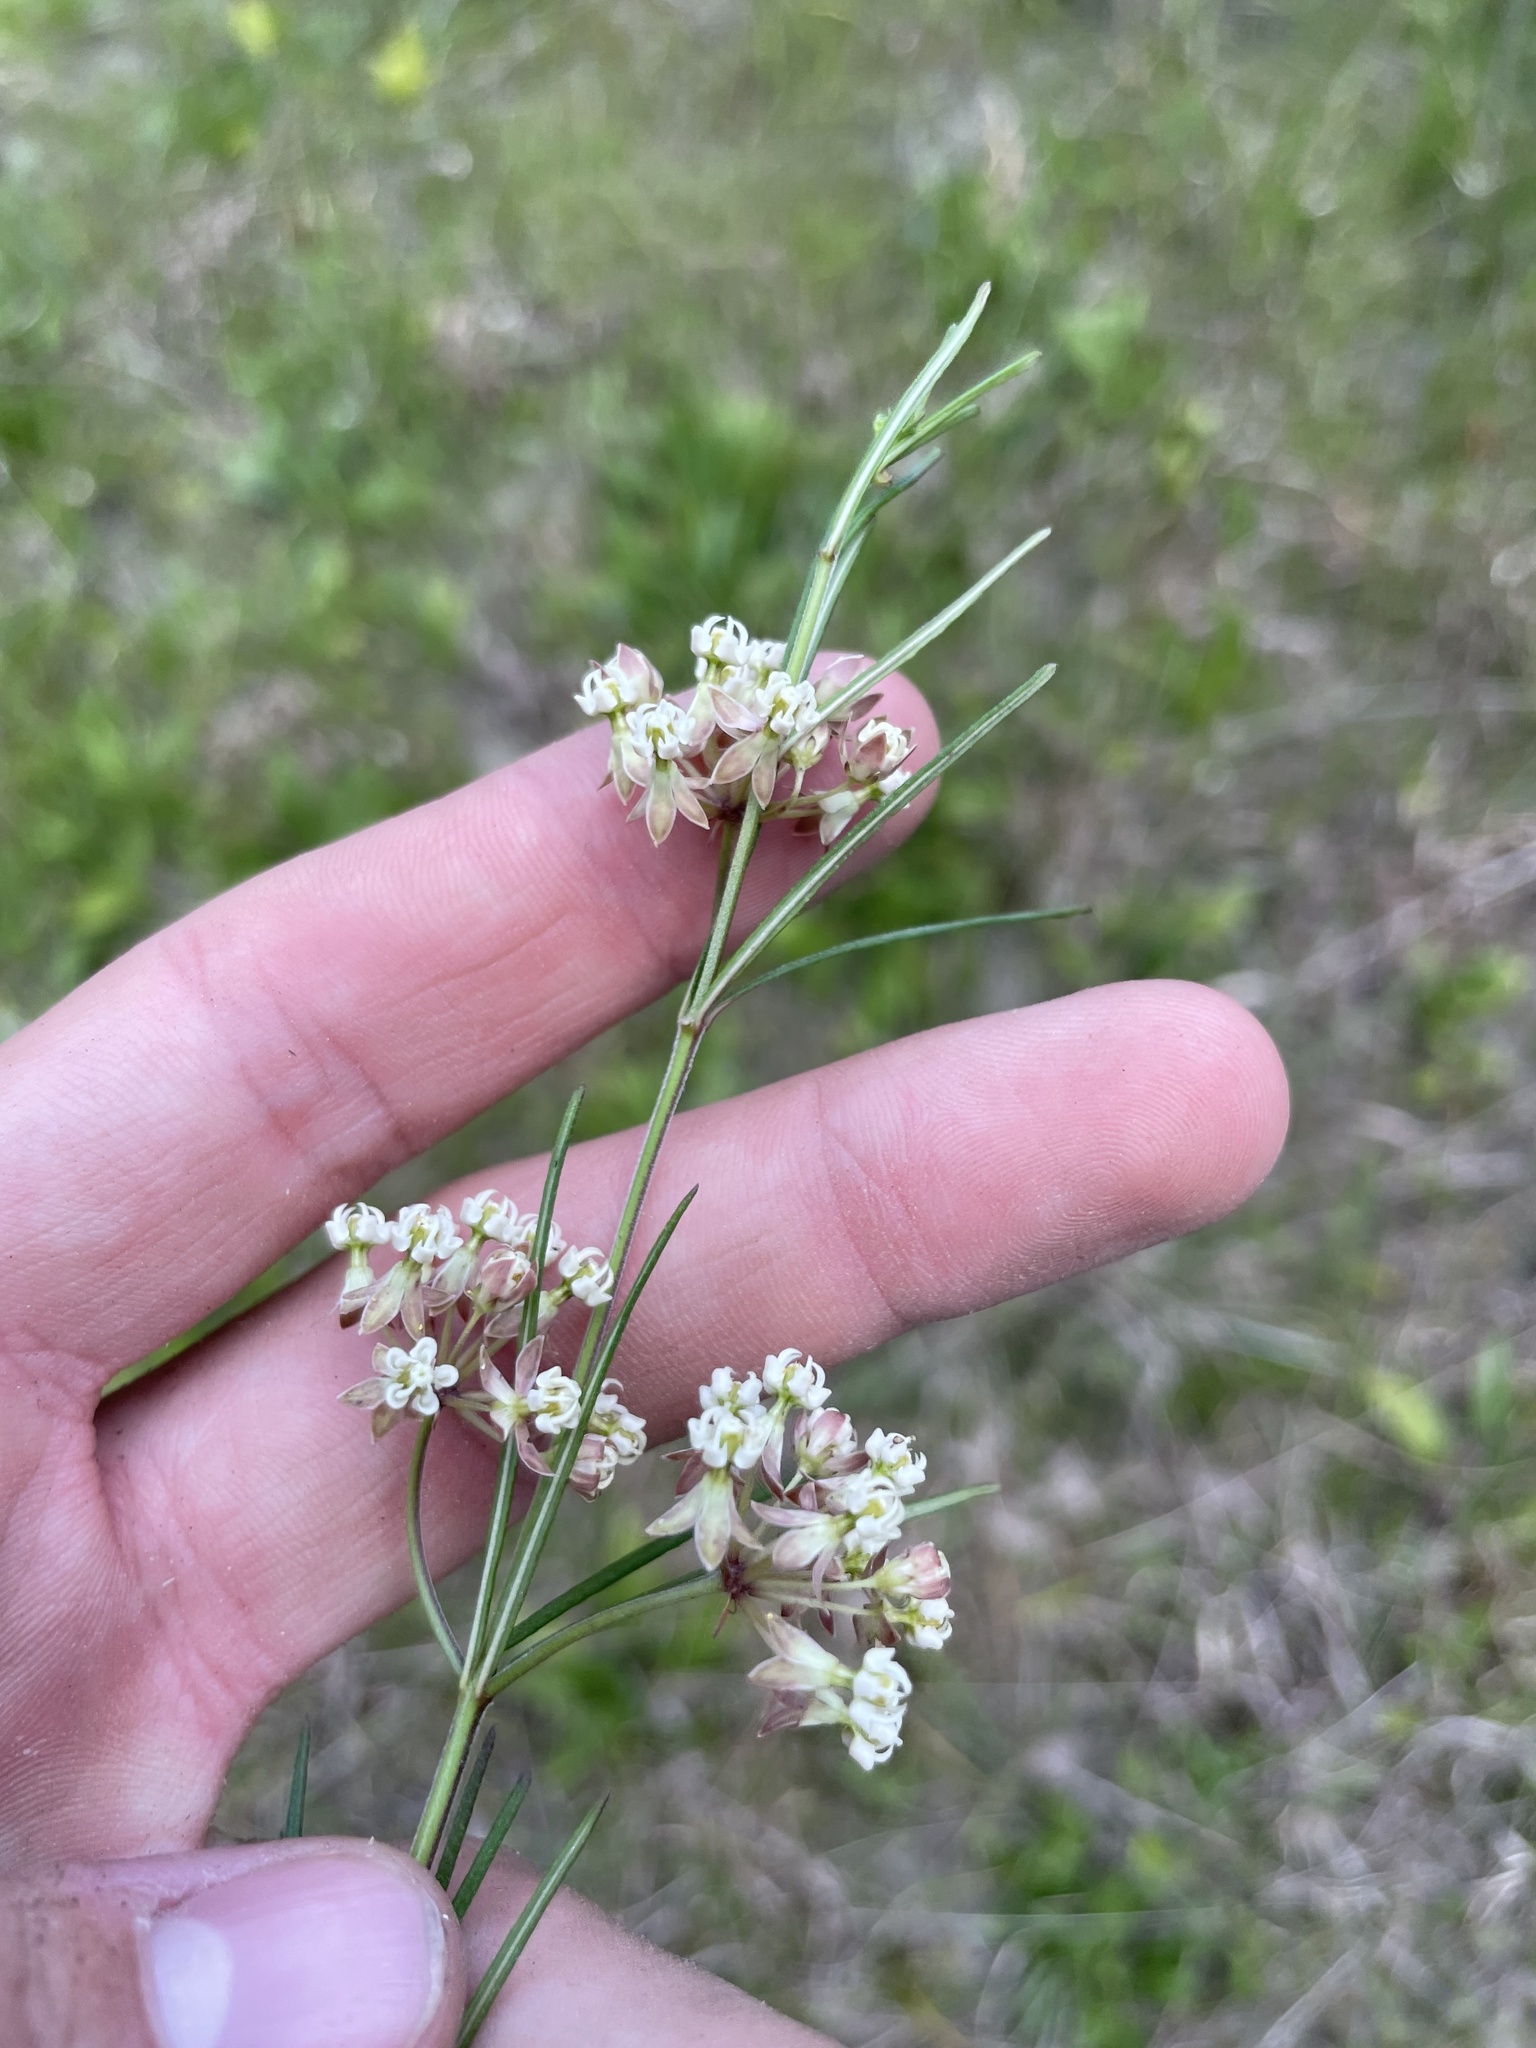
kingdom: Plantae
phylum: Tracheophyta
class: Magnoliopsida
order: Gentianales
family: Apocynaceae
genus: Asclepias
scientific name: Asclepias verticillata
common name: Eastern whorled milkweed
